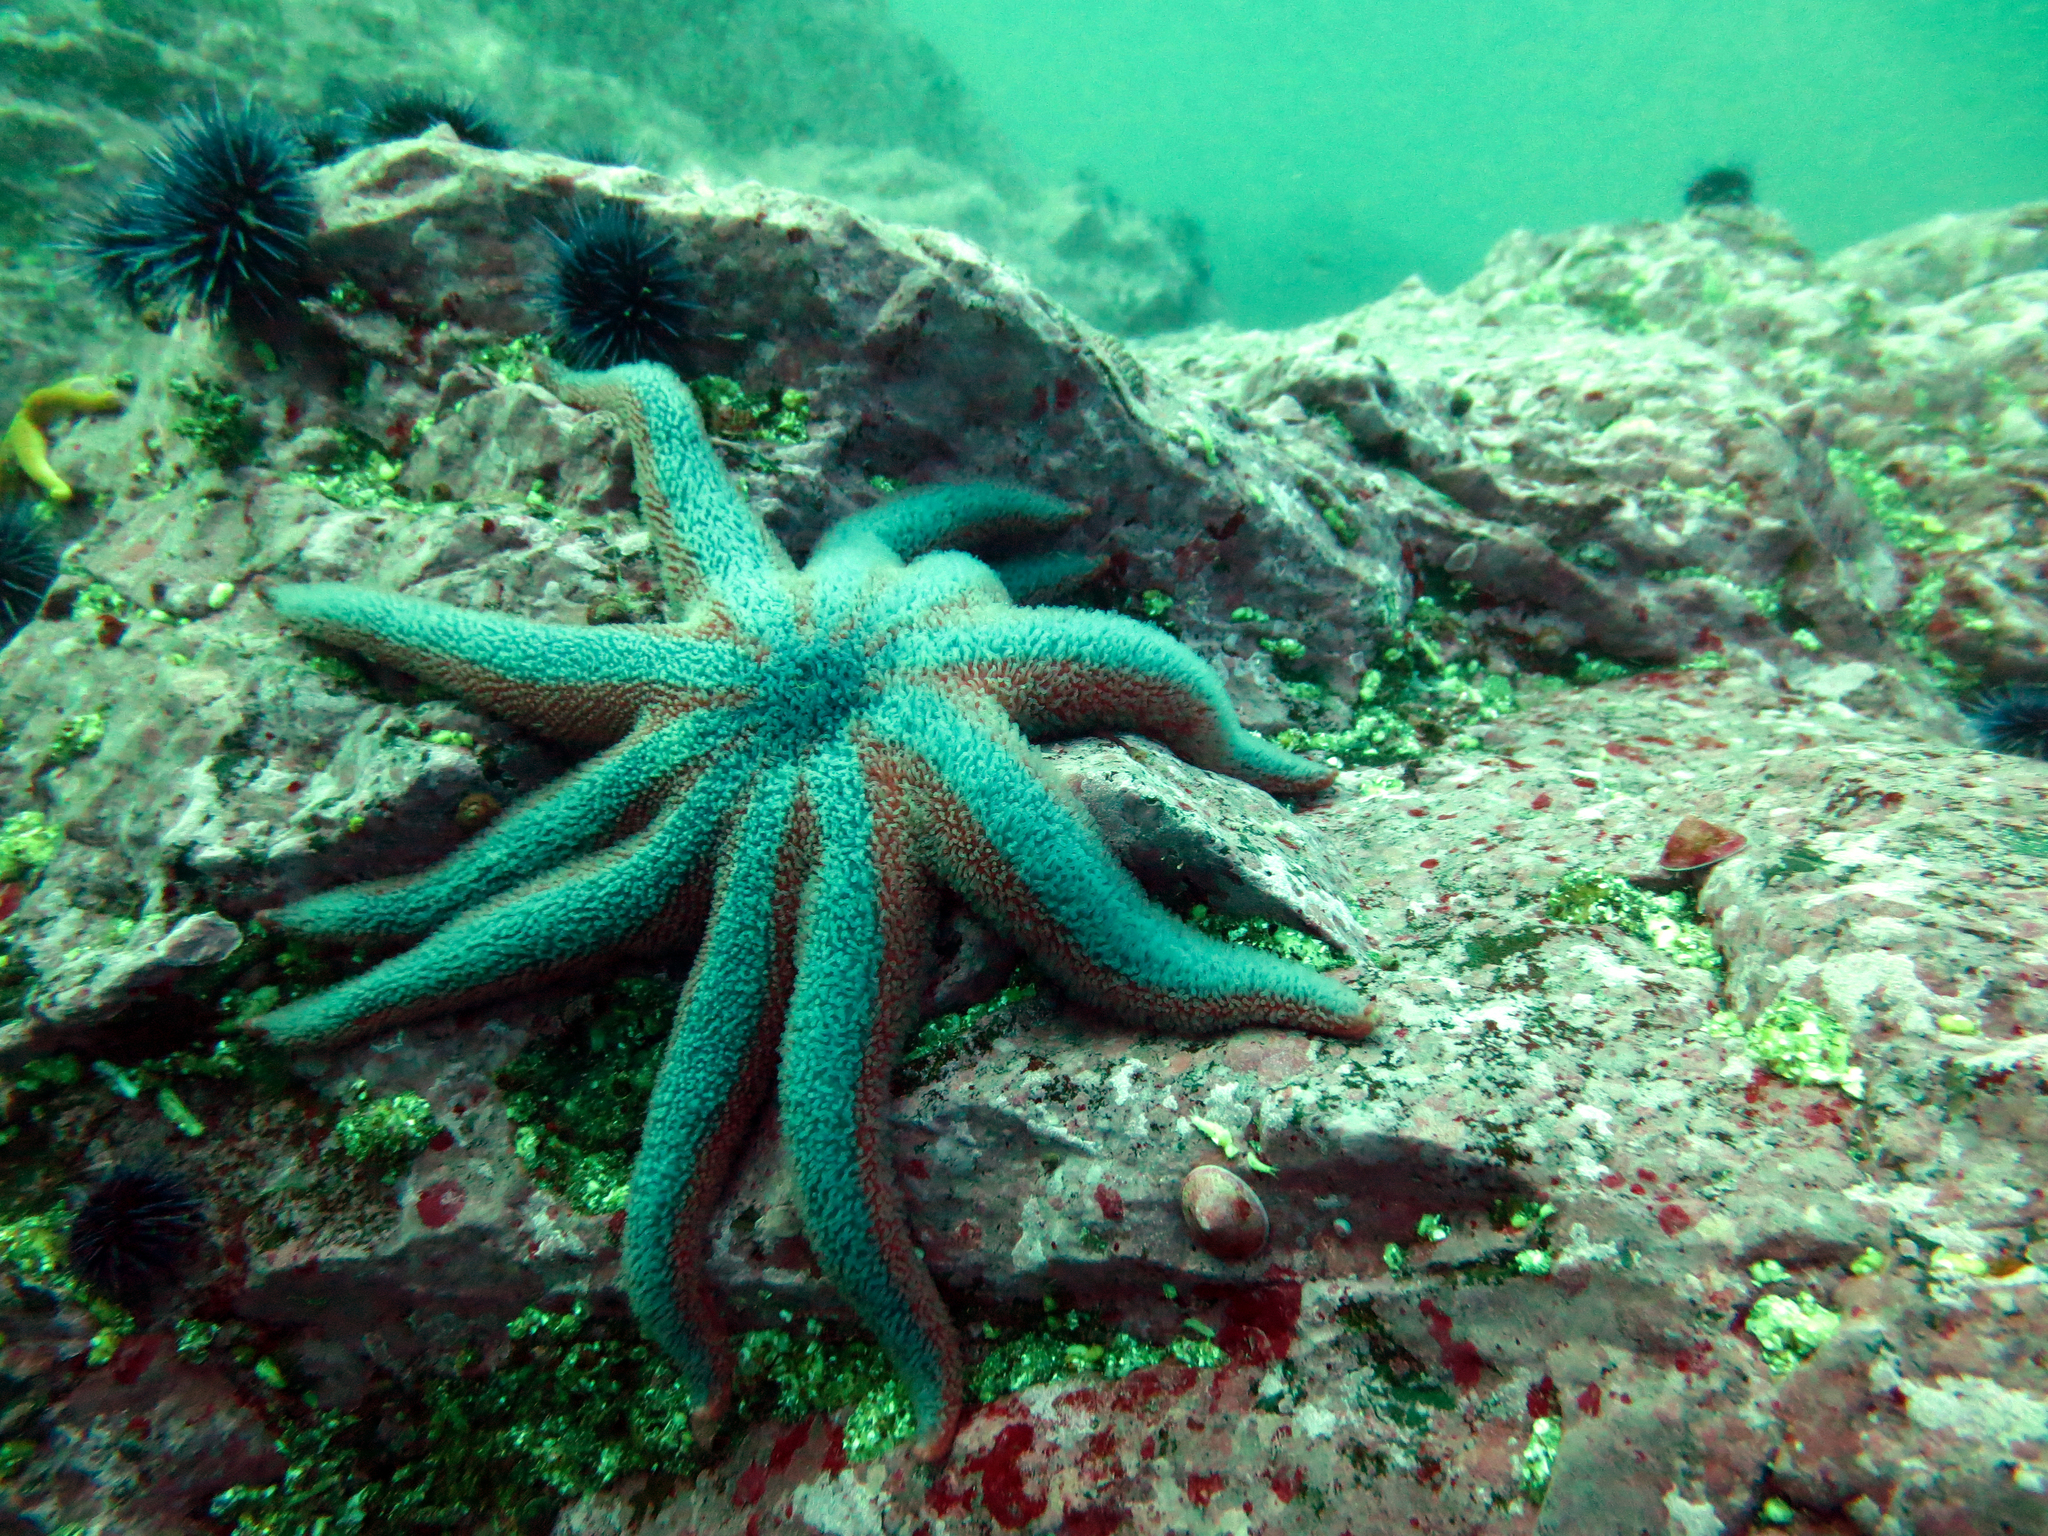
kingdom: Animalia
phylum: Echinodermata
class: Asteroidea
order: Valvatida
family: Solasteridae
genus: Solaster
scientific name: Solaster stimpsoni
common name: Orange sun star
